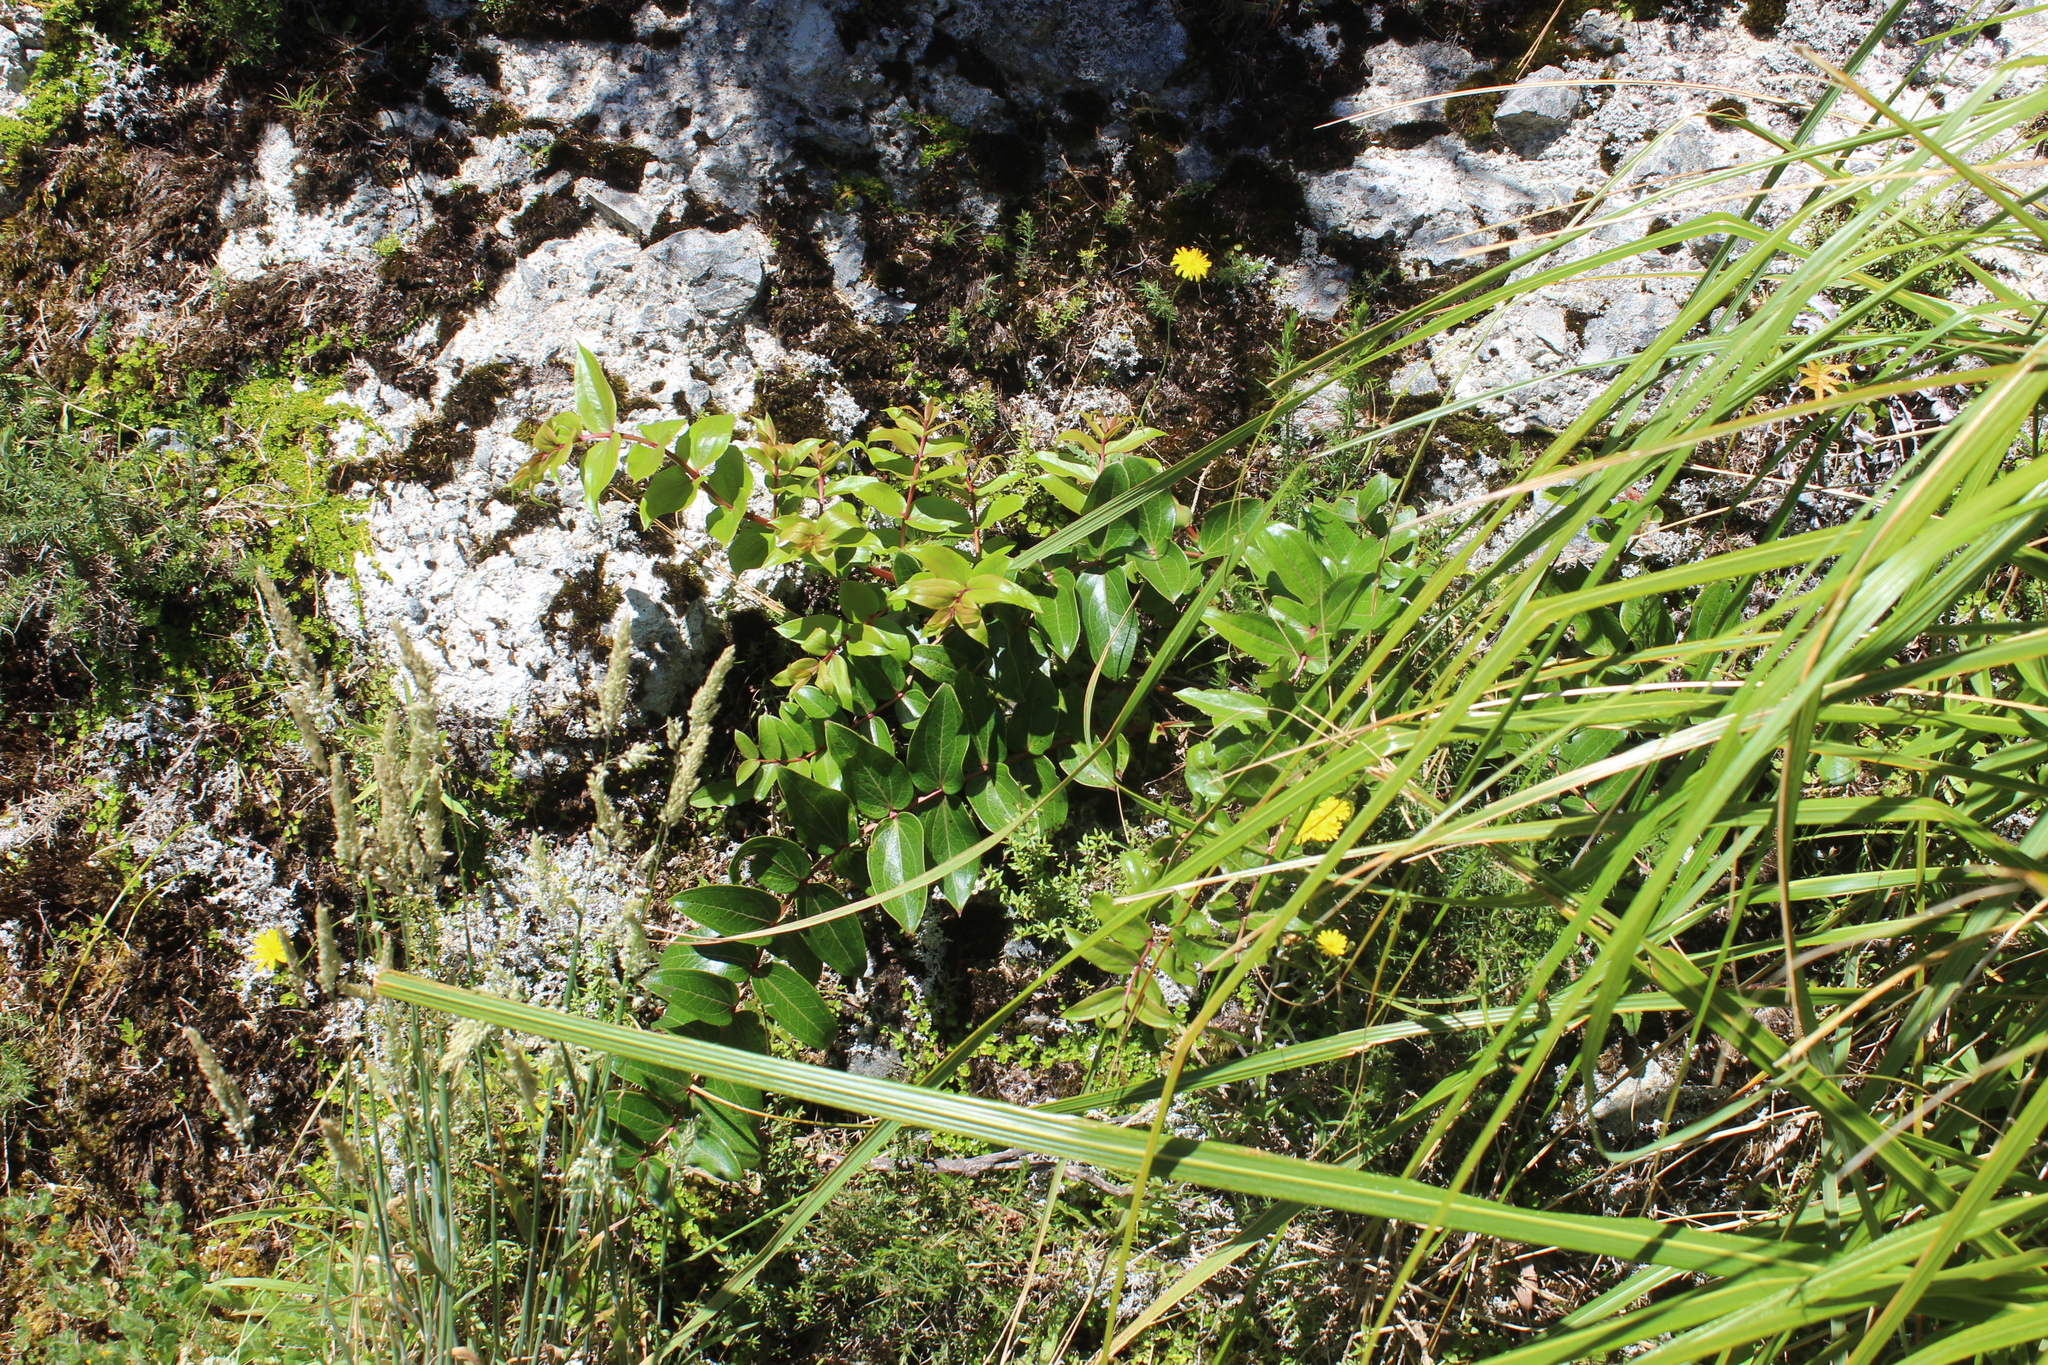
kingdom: Plantae
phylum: Tracheophyta
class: Magnoliopsida
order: Cucurbitales
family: Coriariaceae
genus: Coriaria
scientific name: Coriaria arborea
